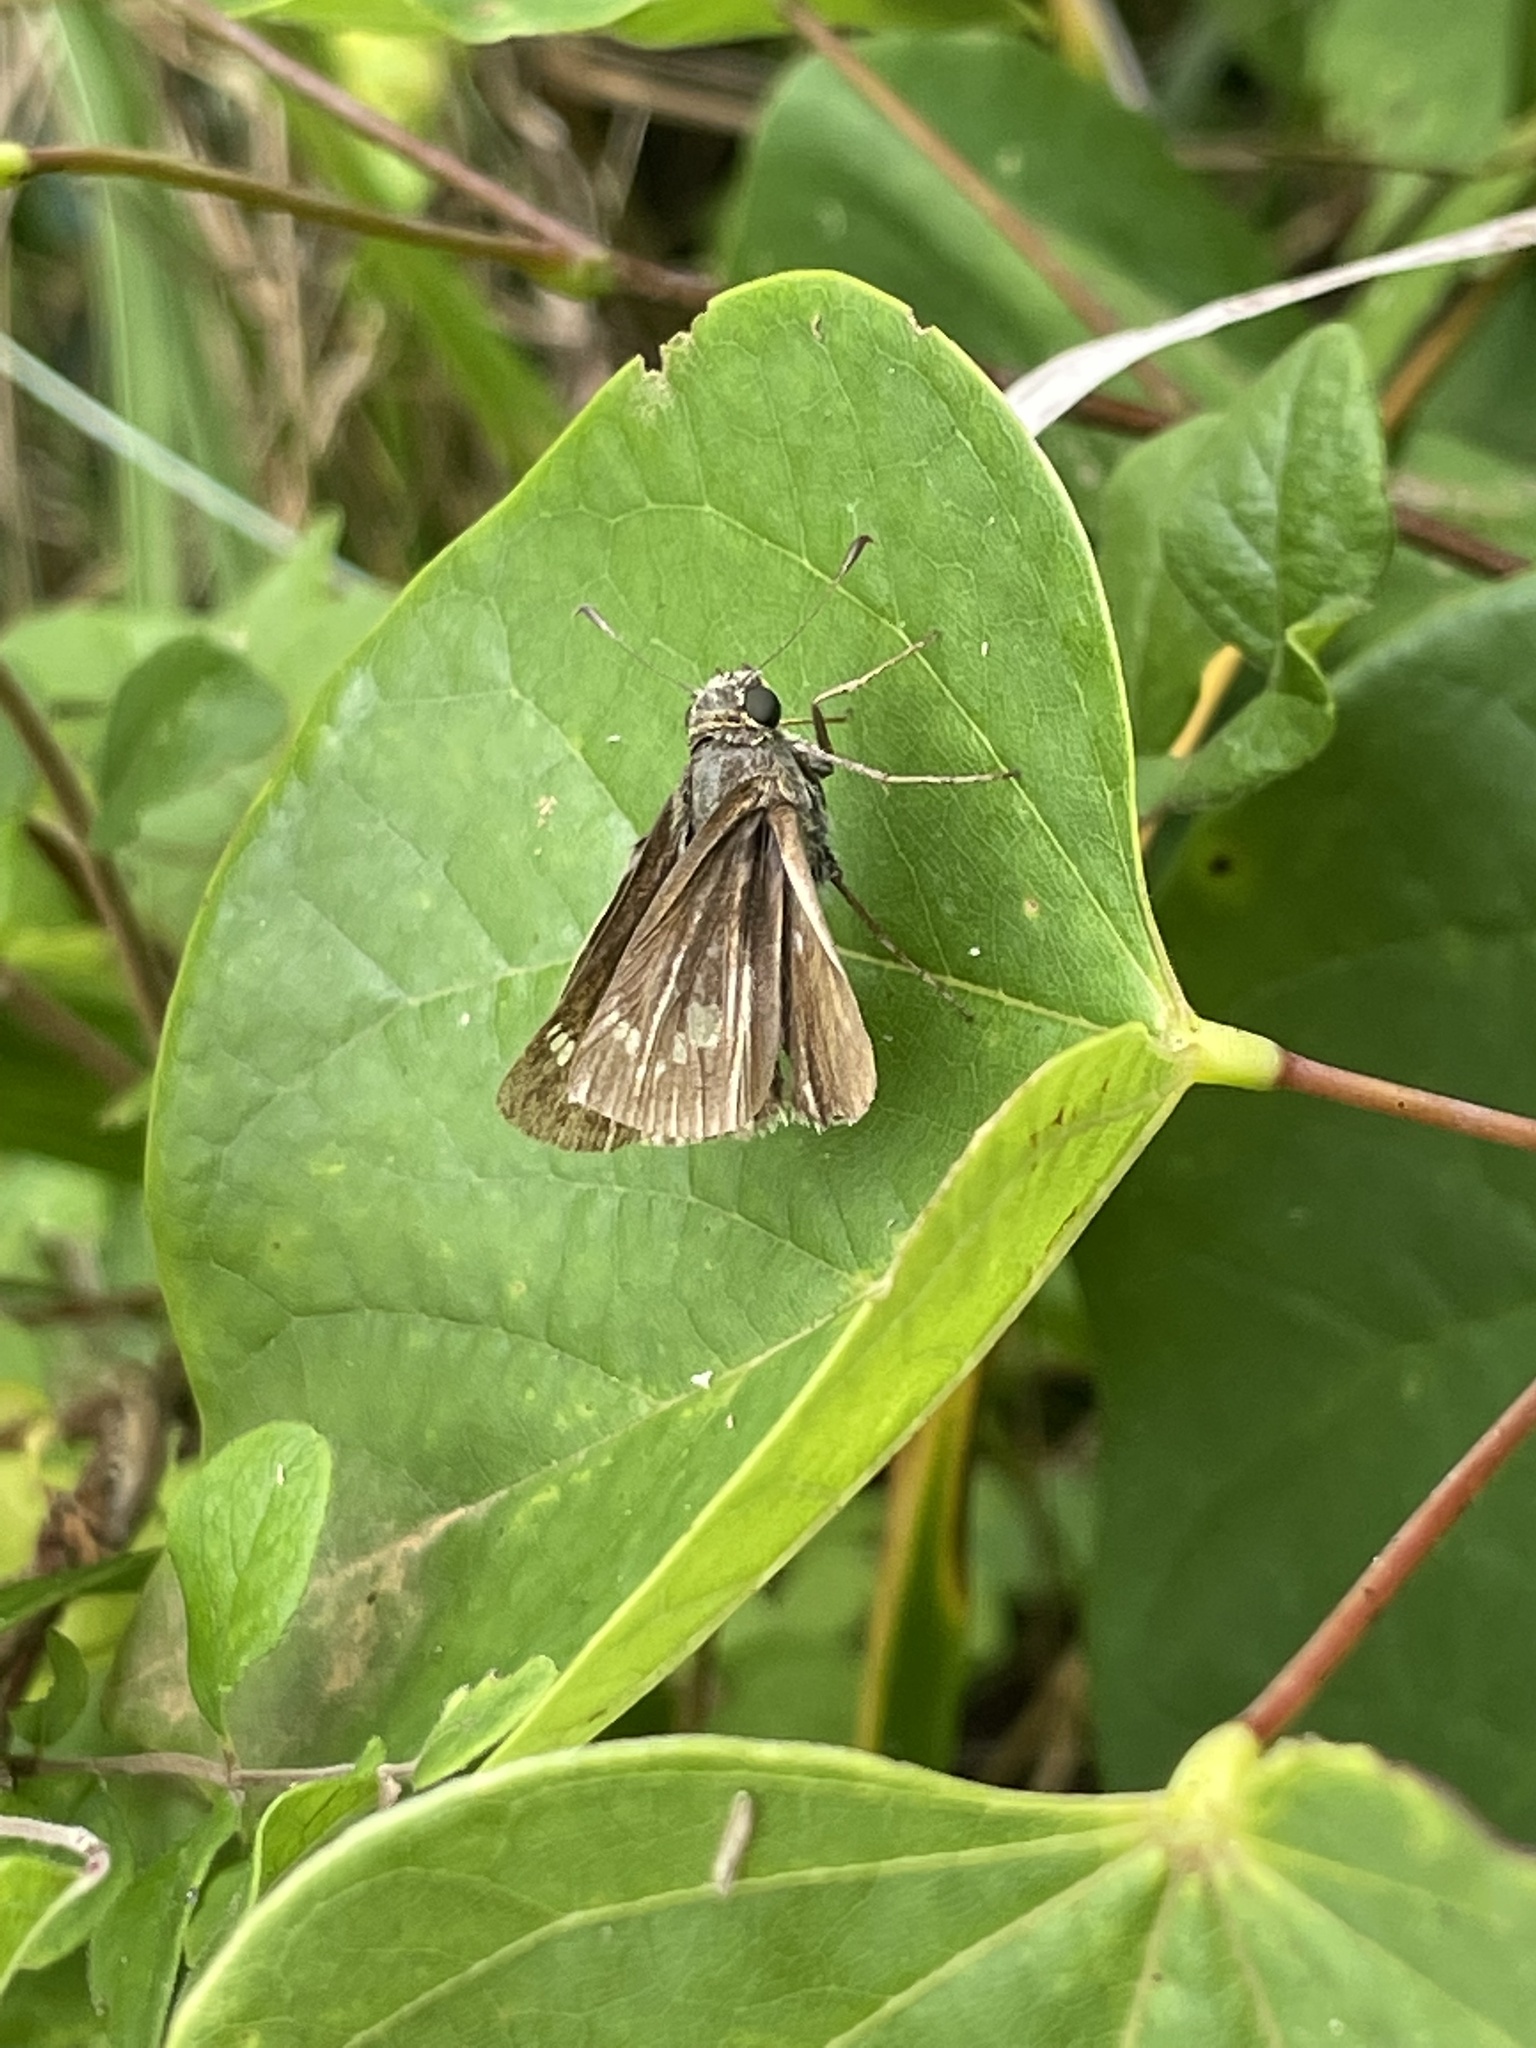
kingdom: Animalia
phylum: Arthropoda
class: Insecta
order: Lepidoptera
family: Hesperiidae
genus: Vernia
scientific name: Vernia verna
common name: Little glassywing
